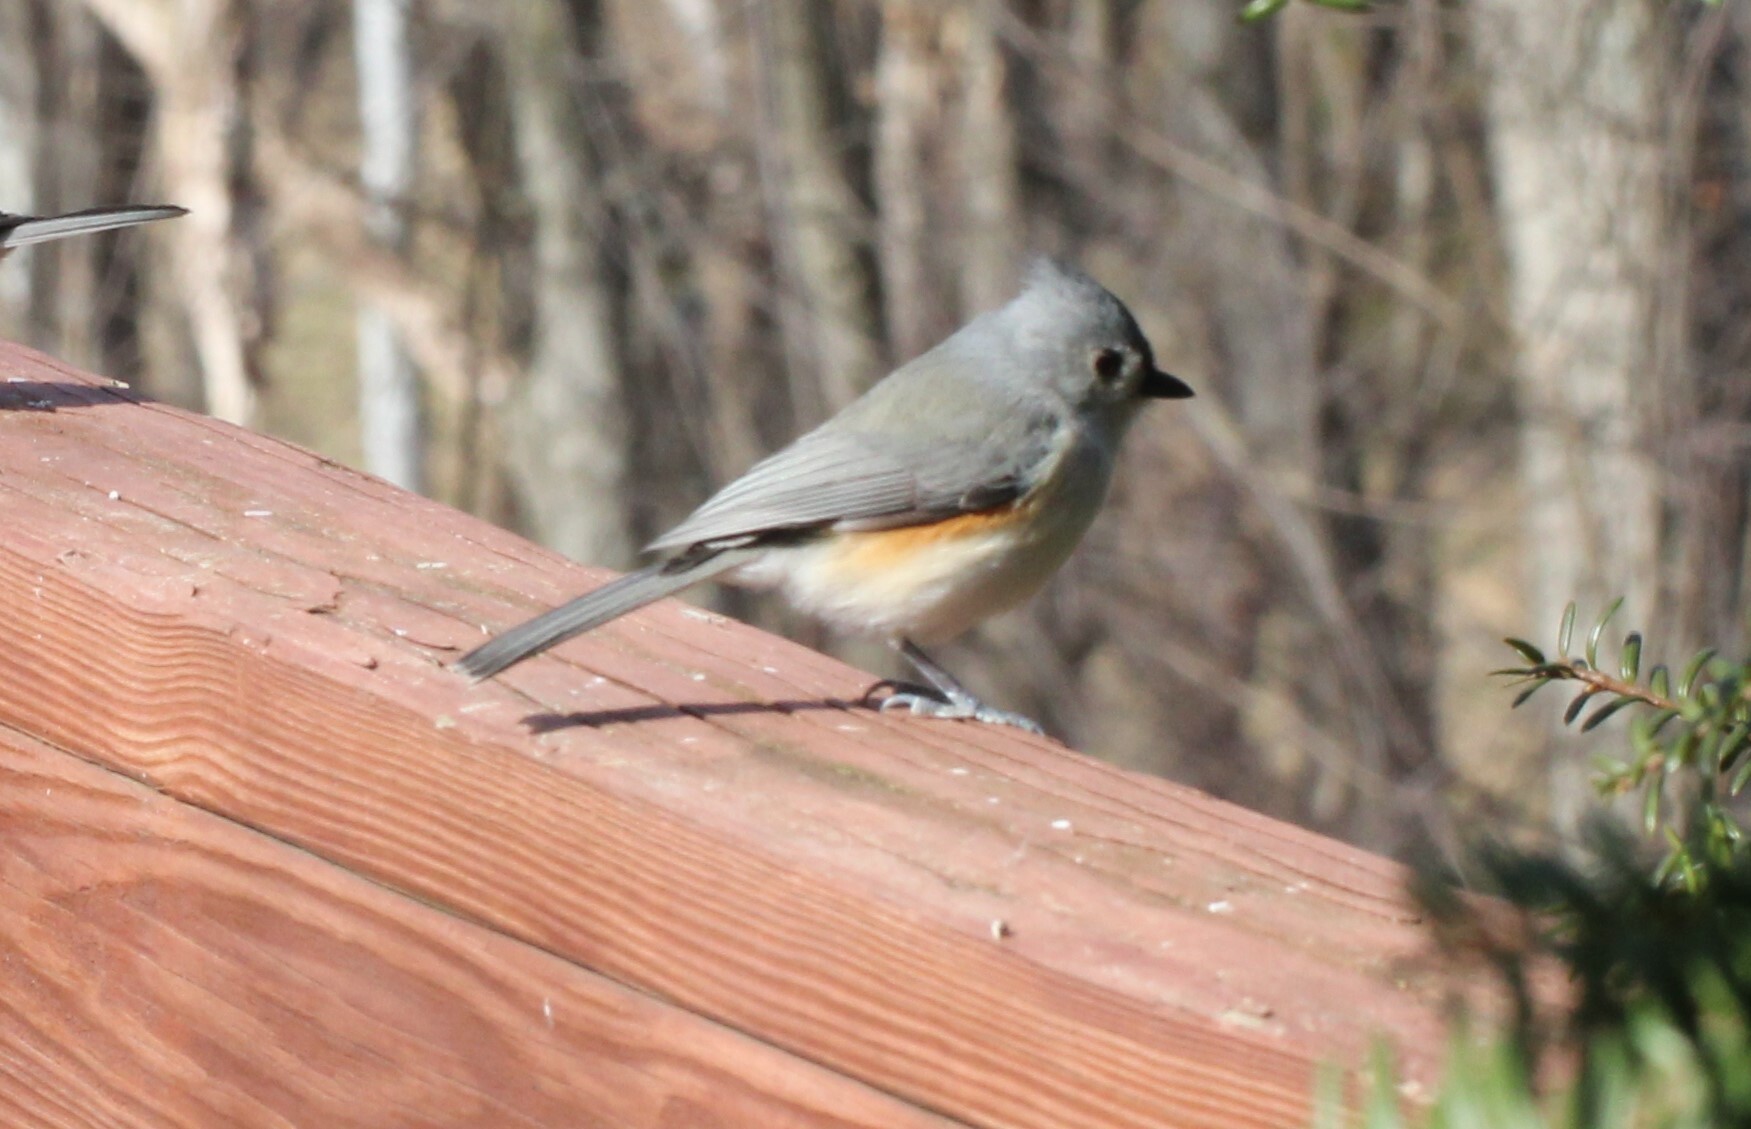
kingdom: Animalia
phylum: Chordata
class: Aves
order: Passeriformes
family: Paridae
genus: Baeolophus
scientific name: Baeolophus bicolor
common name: Tufted titmouse
